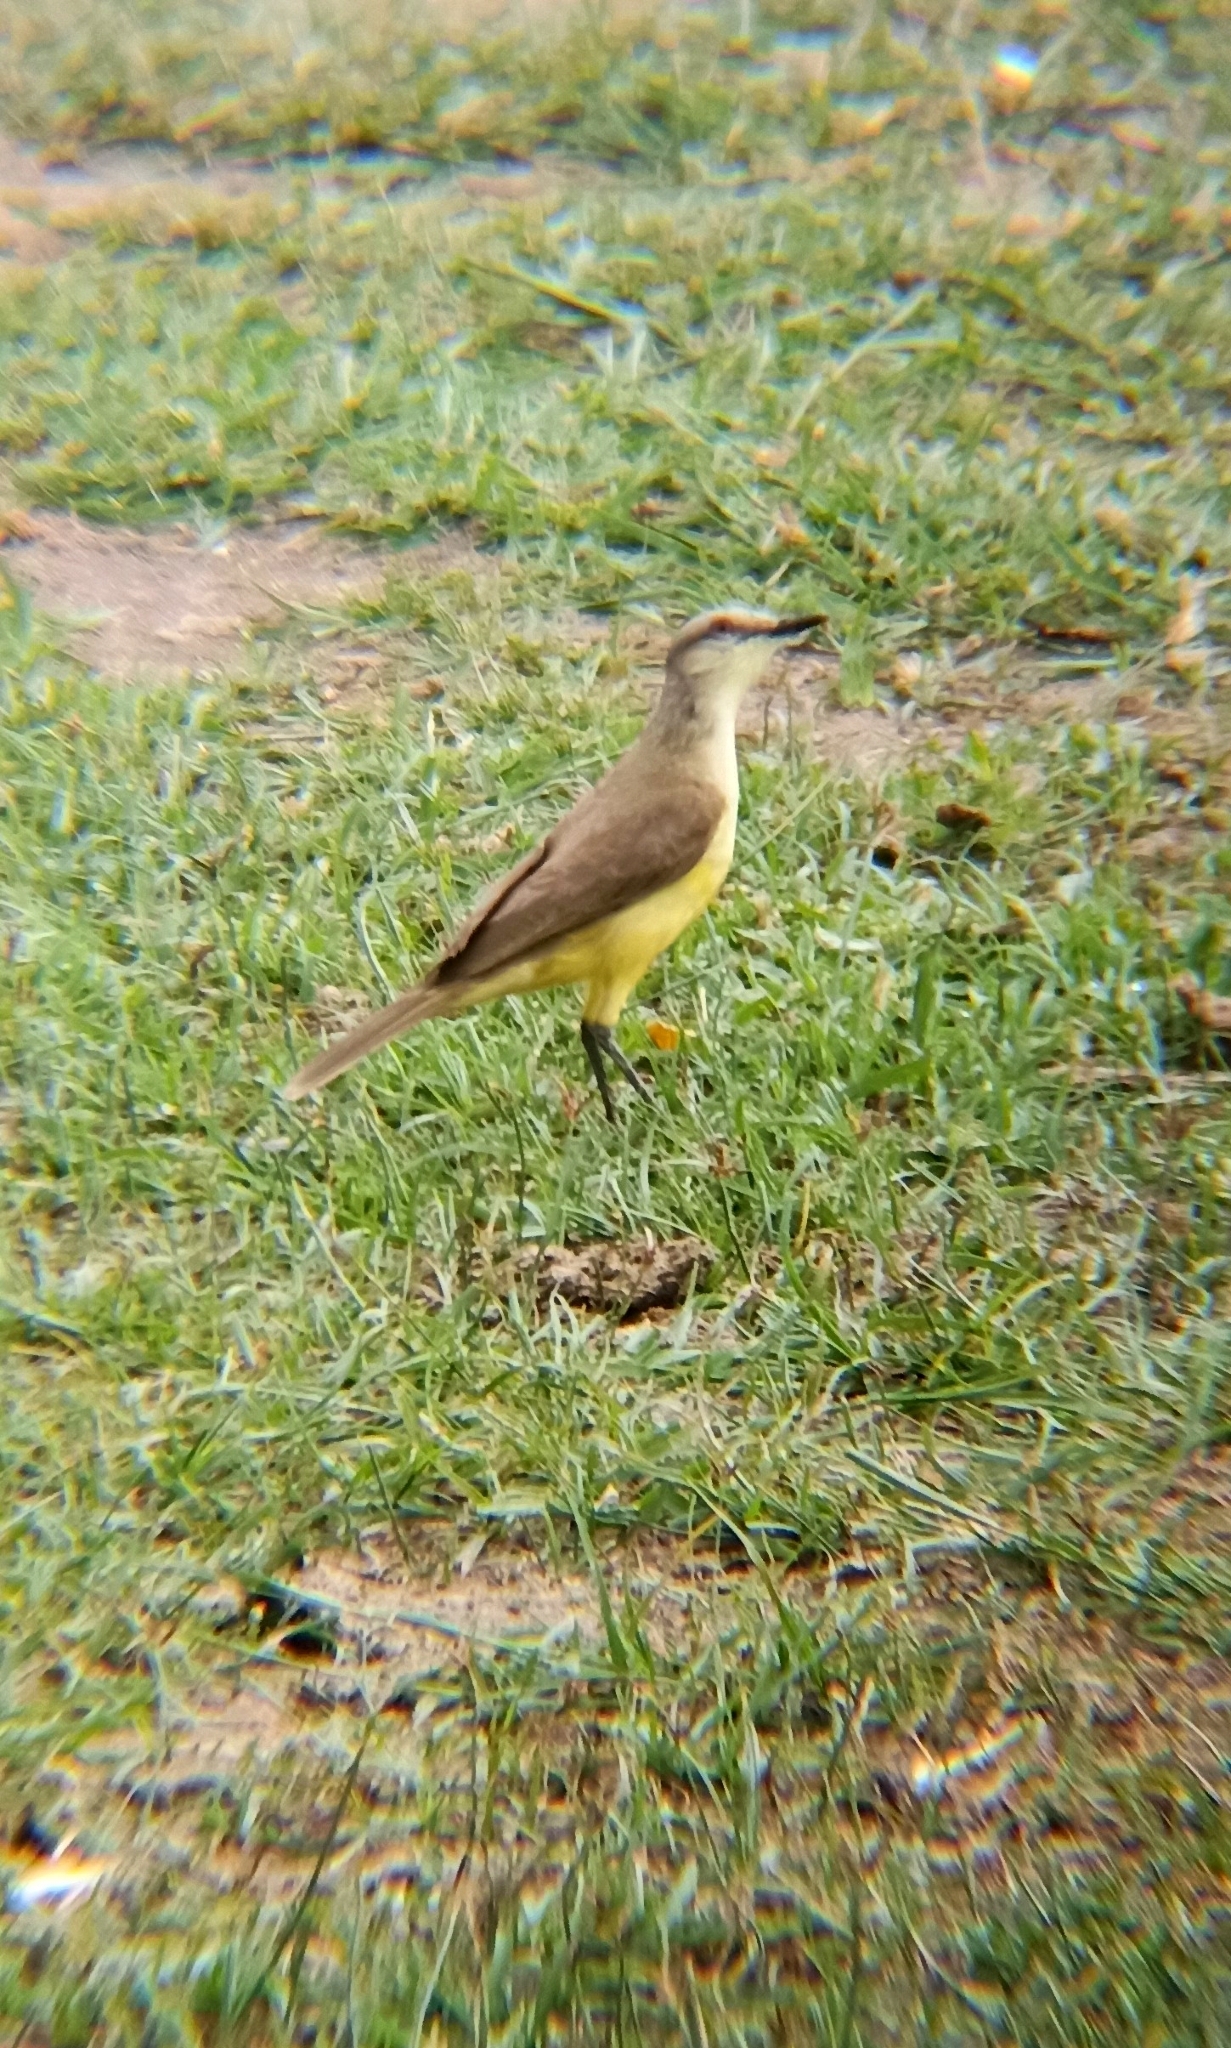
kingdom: Animalia
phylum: Chordata
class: Aves
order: Passeriformes
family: Tyrannidae
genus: Machetornis
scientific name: Machetornis rixosa
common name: Cattle tyrant
